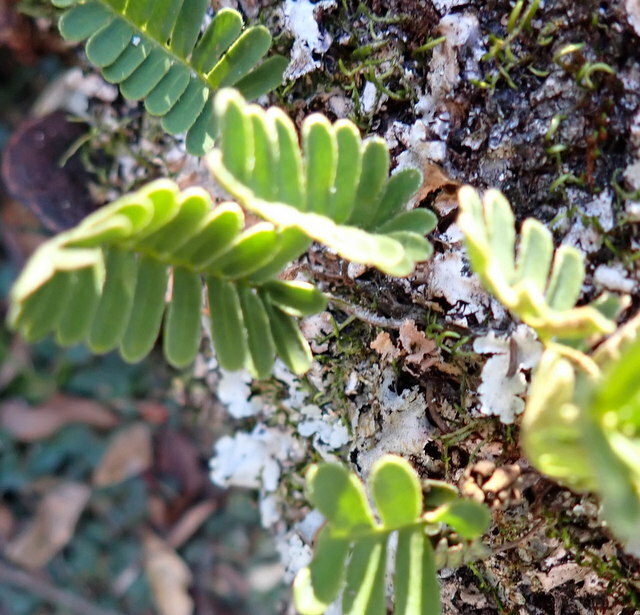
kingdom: Plantae
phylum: Tracheophyta
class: Polypodiopsida
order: Polypodiales
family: Polypodiaceae
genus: Pleopeltis
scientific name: Pleopeltis michauxiana
